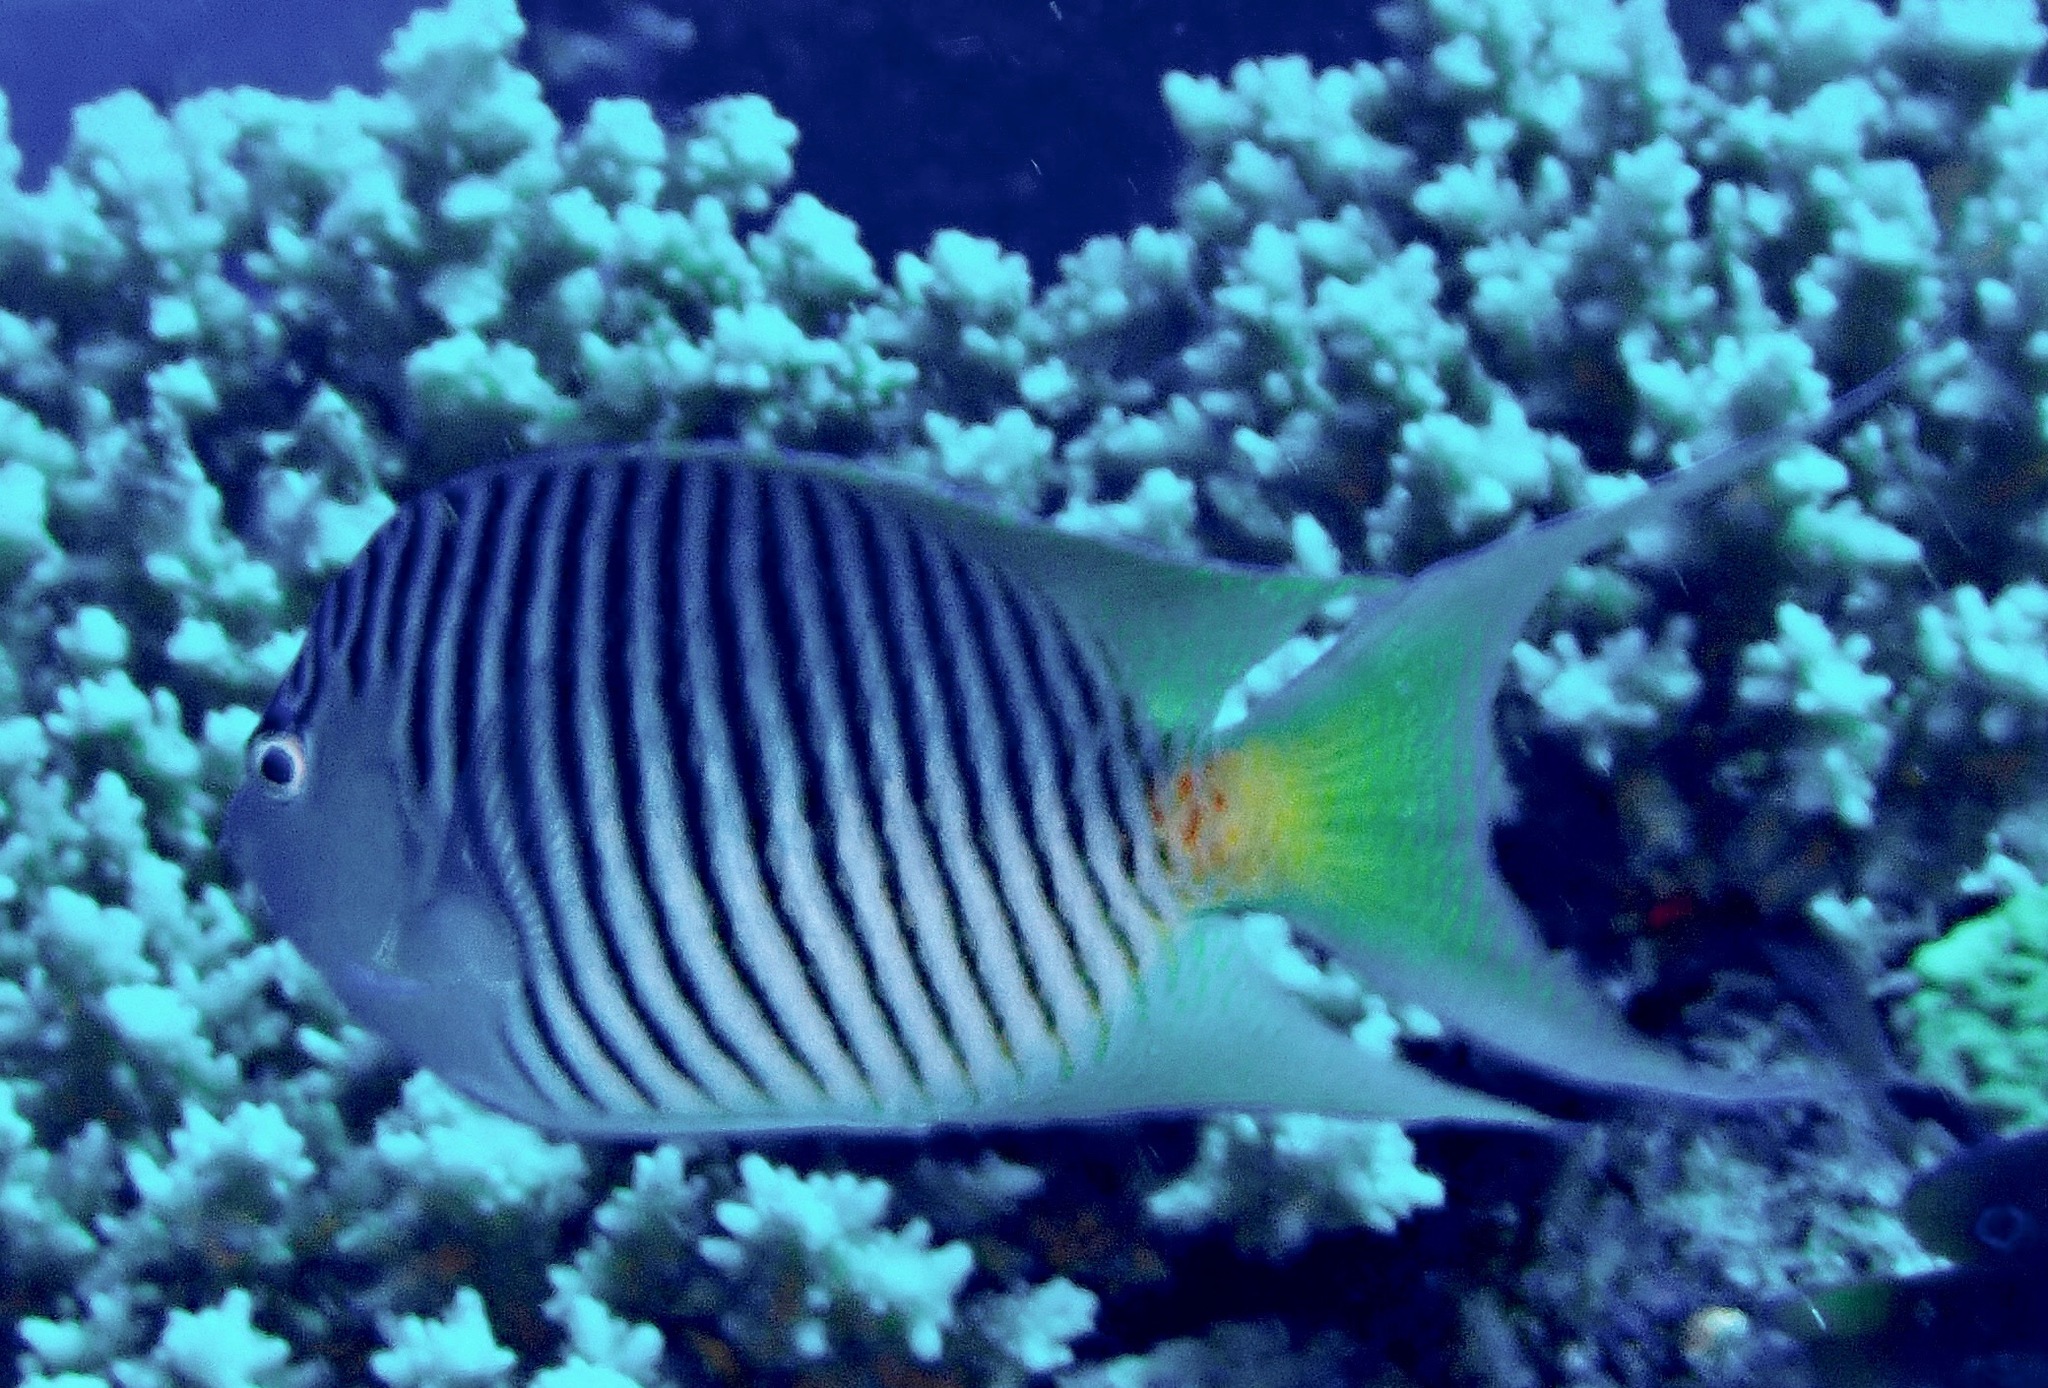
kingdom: Animalia
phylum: Chordata
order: Perciformes
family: Pomacanthidae
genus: Genicanthus
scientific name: Genicanthus melanospilos
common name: Black-spot angelfish
